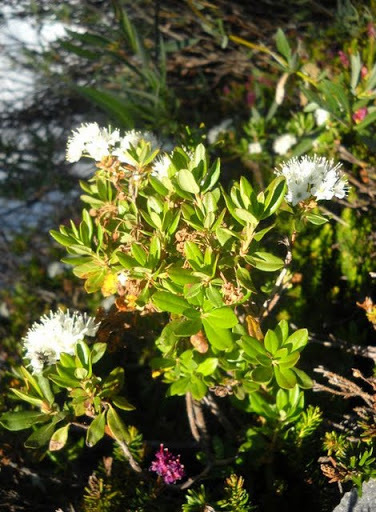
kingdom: Plantae
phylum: Tracheophyta
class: Magnoliopsida
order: Ericales
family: Ericaceae
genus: Rhododendron
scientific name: Rhododendron columbianum
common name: Western labrador tea
